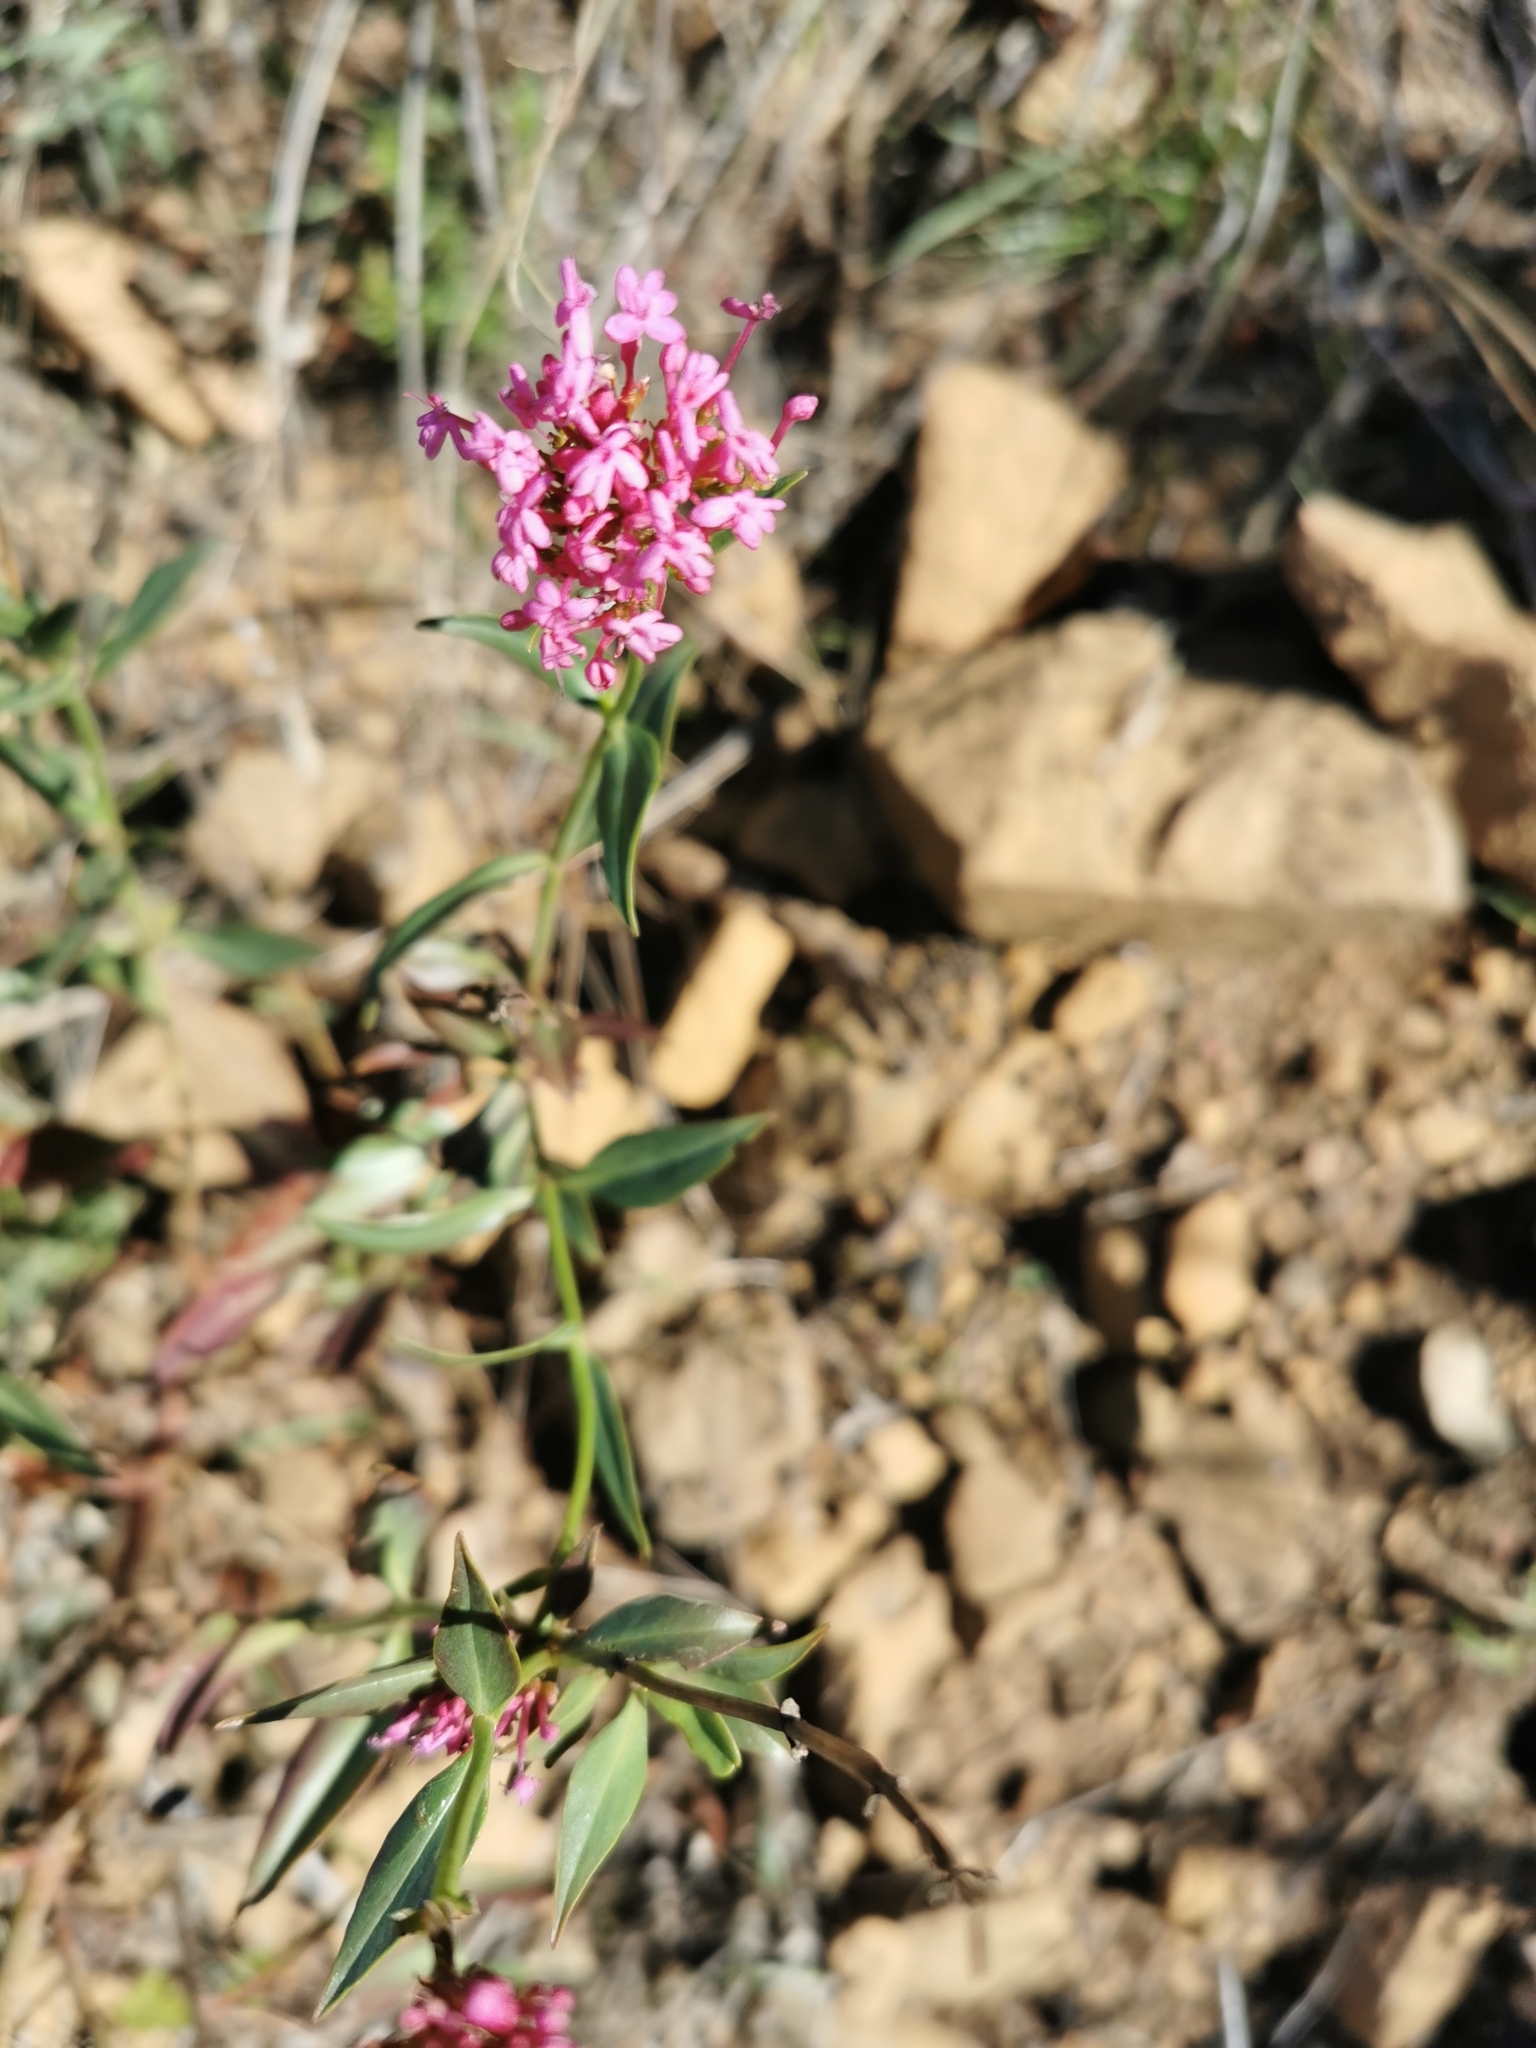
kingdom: Plantae
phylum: Tracheophyta
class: Magnoliopsida
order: Dipsacales
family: Caprifoliaceae
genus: Centranthus
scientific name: Centranthus ruber
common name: Red valerian
